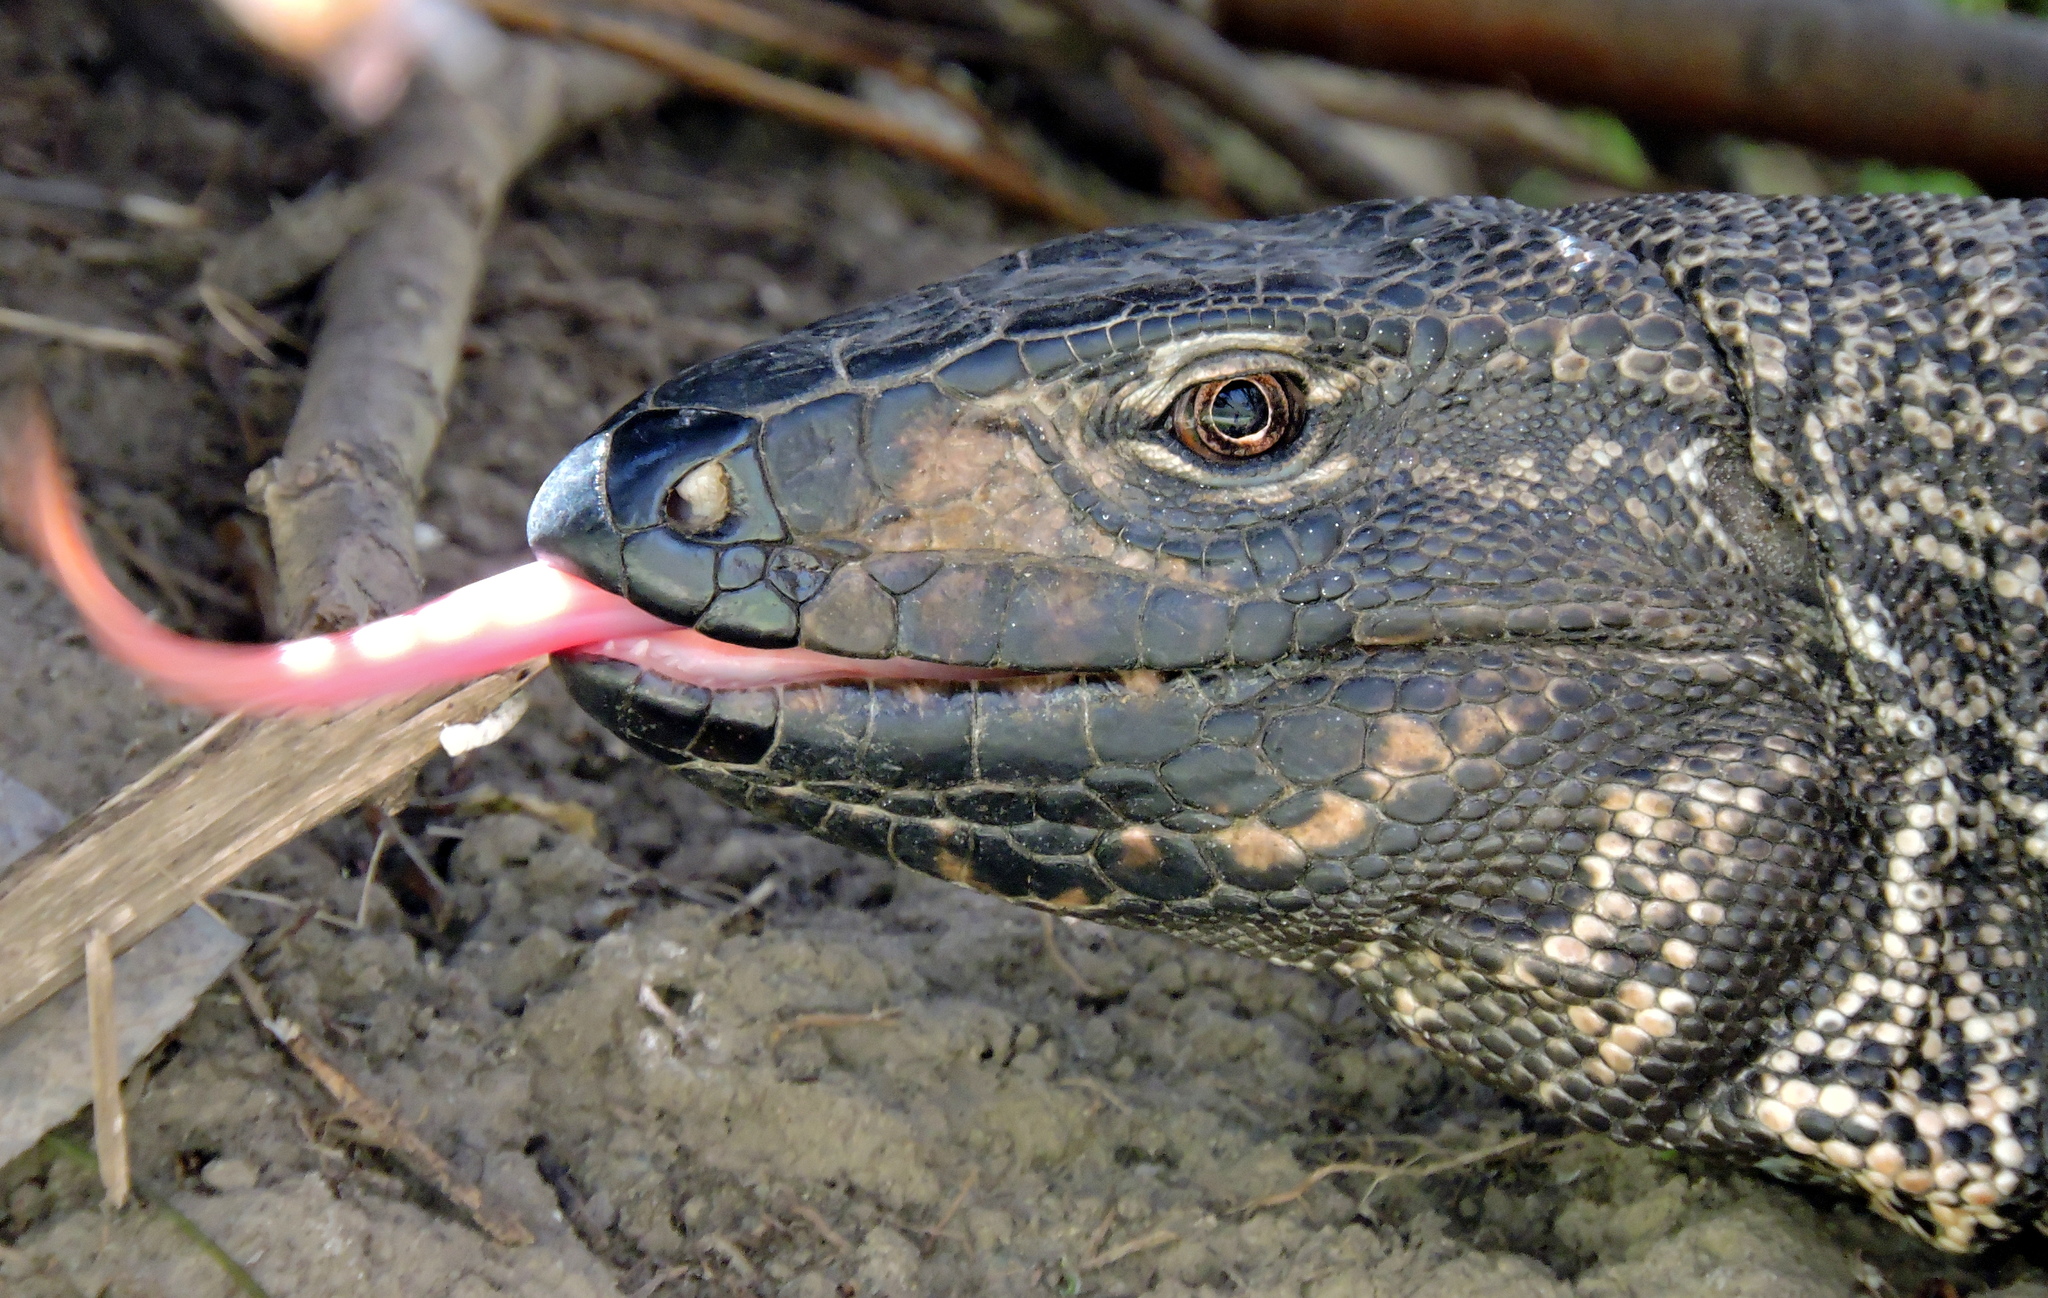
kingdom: Animalia
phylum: Chordata
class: Squamata
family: Teiidae
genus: Salvator
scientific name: Salvator merianae
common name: Argentine black and white tegu
